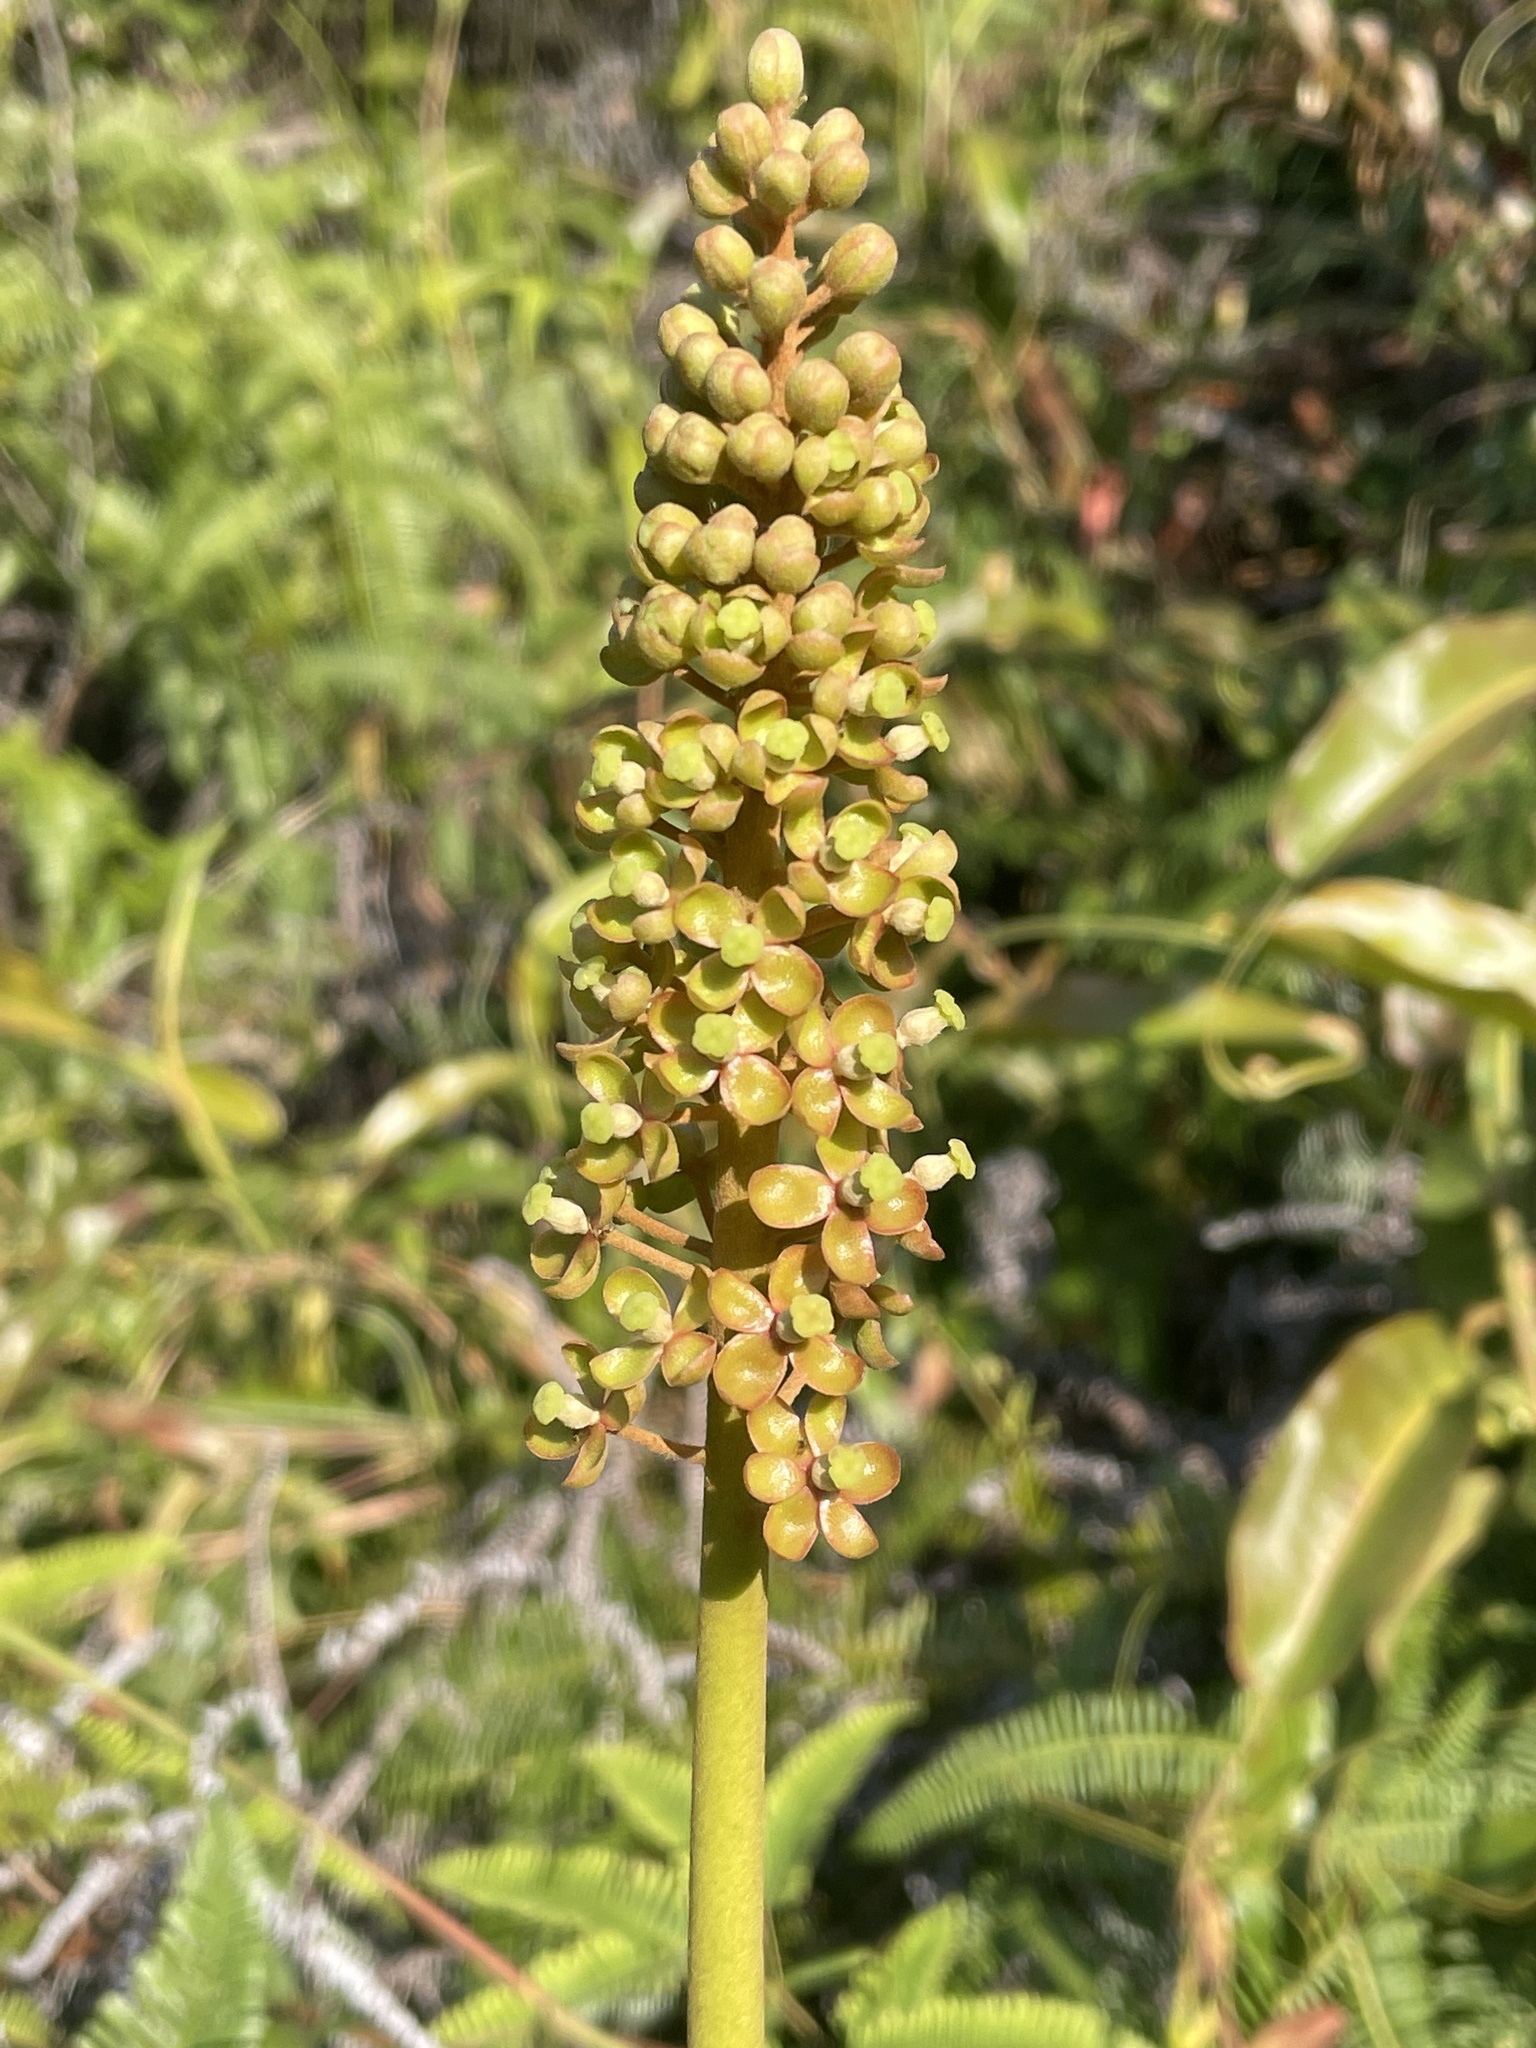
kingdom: Plantae
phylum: Tracheophyta
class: Magnoliopsida
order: Caryophyllales
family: Nepenthaceae
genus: Nepenthes
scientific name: Nepenthes mirabilis
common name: Tropical pitcherplant
